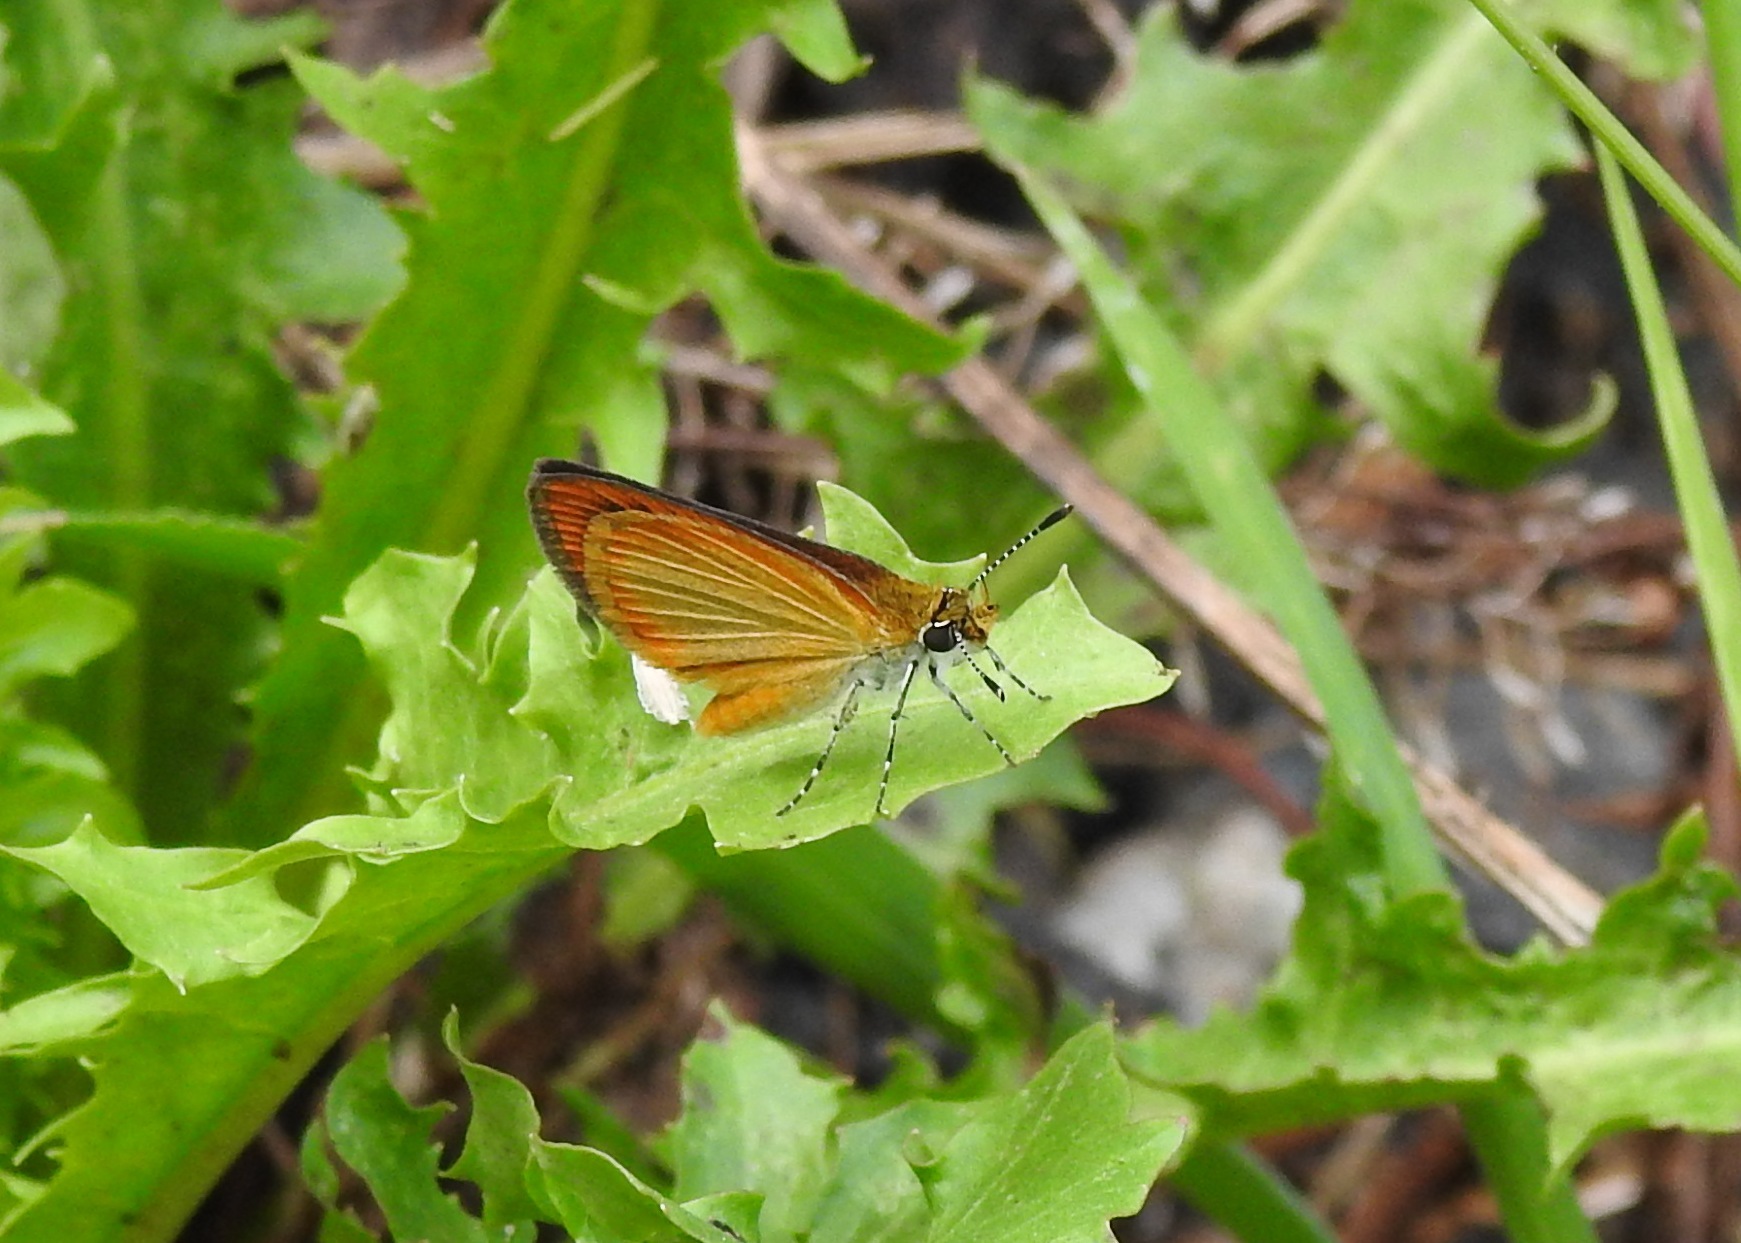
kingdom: Animalia
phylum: Arthropoda
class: Insecta
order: Lepidoptera
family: Hesperiidae
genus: Ancyloxypha
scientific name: Ancyloxypha numitor
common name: Least skipper
